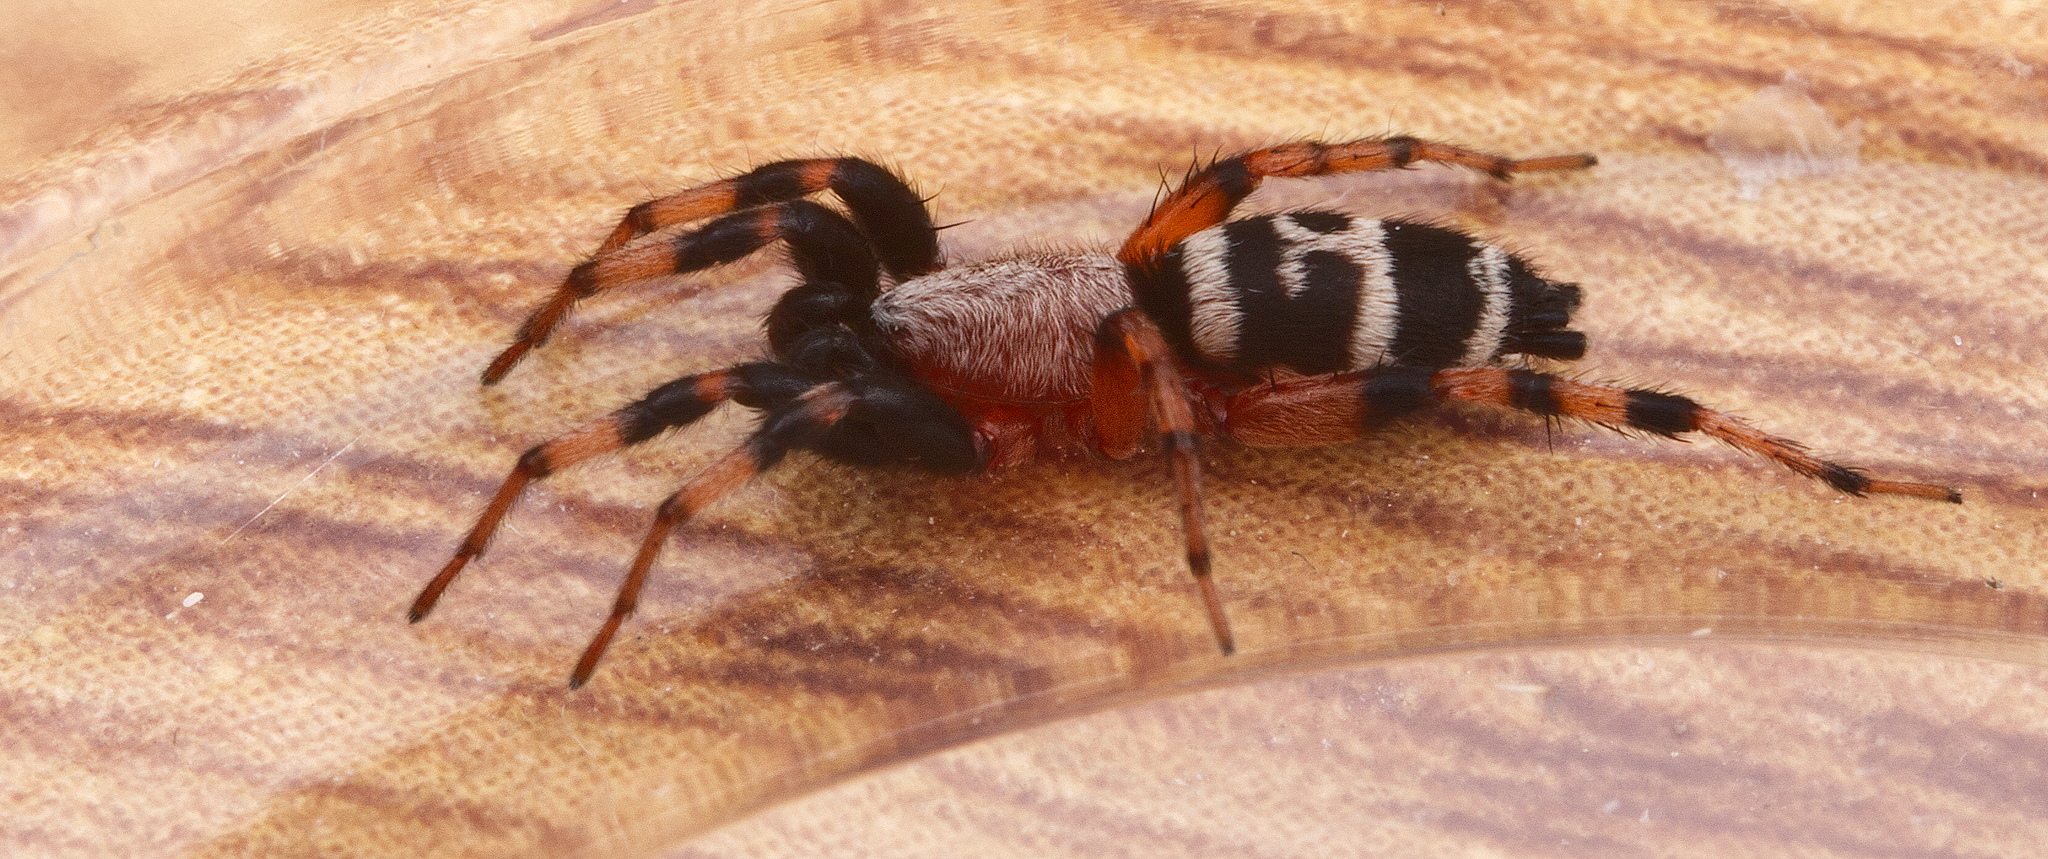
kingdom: Animalia
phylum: Arthropoda
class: Arachnida
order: Araneae
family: Gnaphosidae
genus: Sergiolus
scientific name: Sergiolus capulatus
